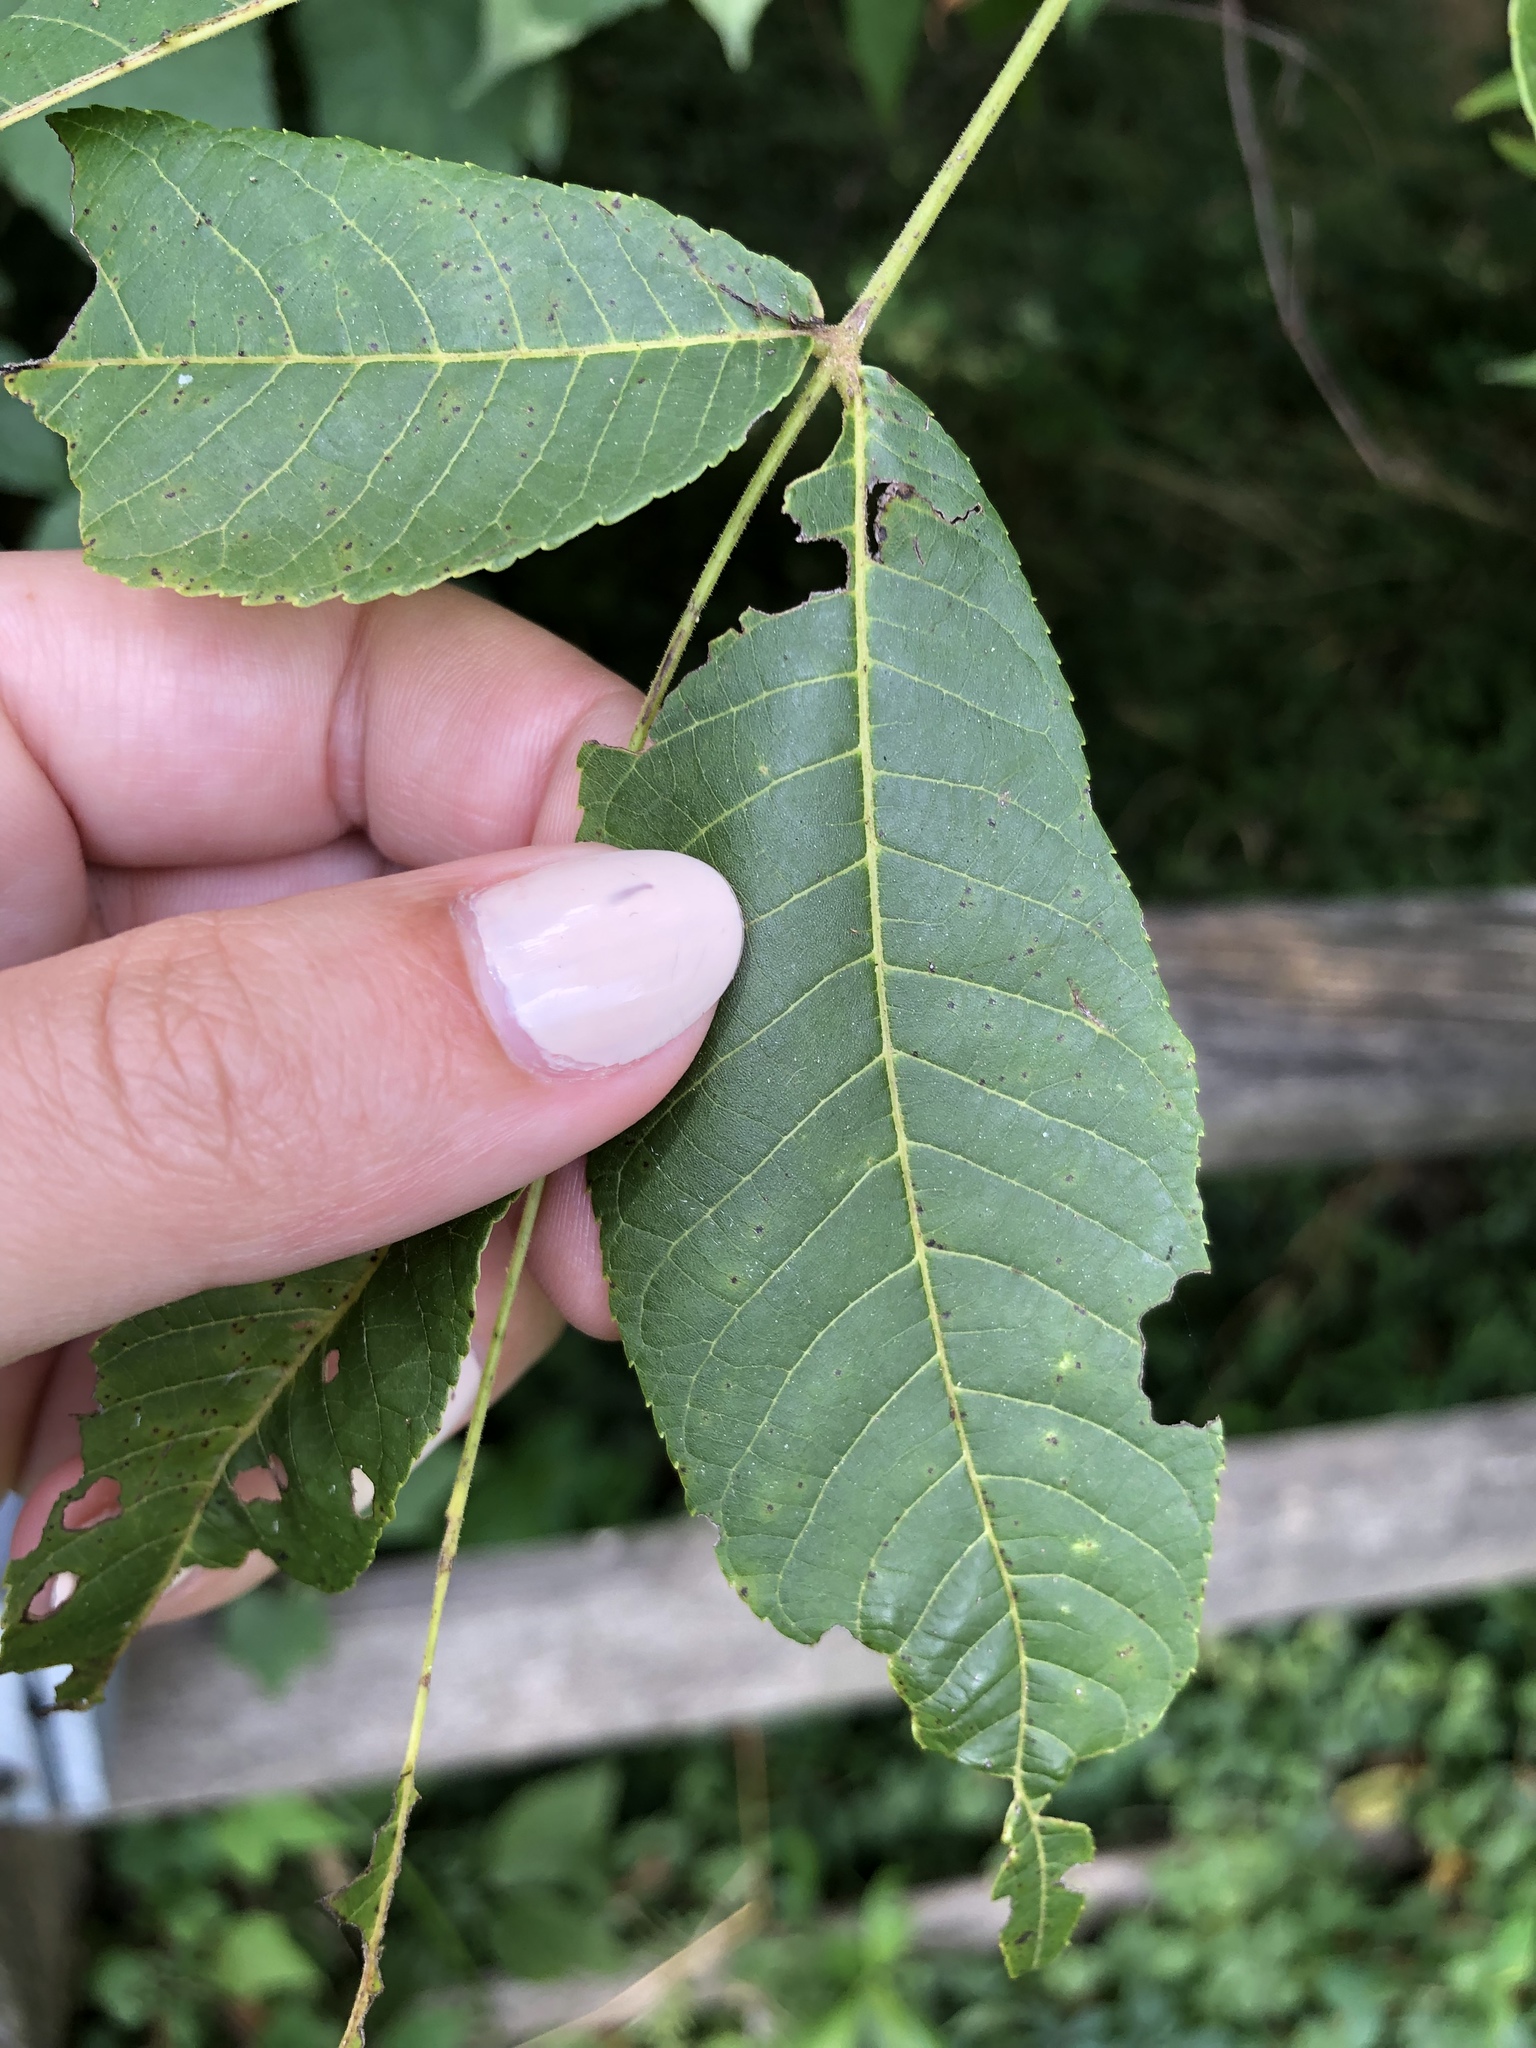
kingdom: Animalia
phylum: Arthropoda
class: Insecta
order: Lepidoptera
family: Notodontidae
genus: Datana
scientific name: Datana integerrima
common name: Walnut caterpillar
